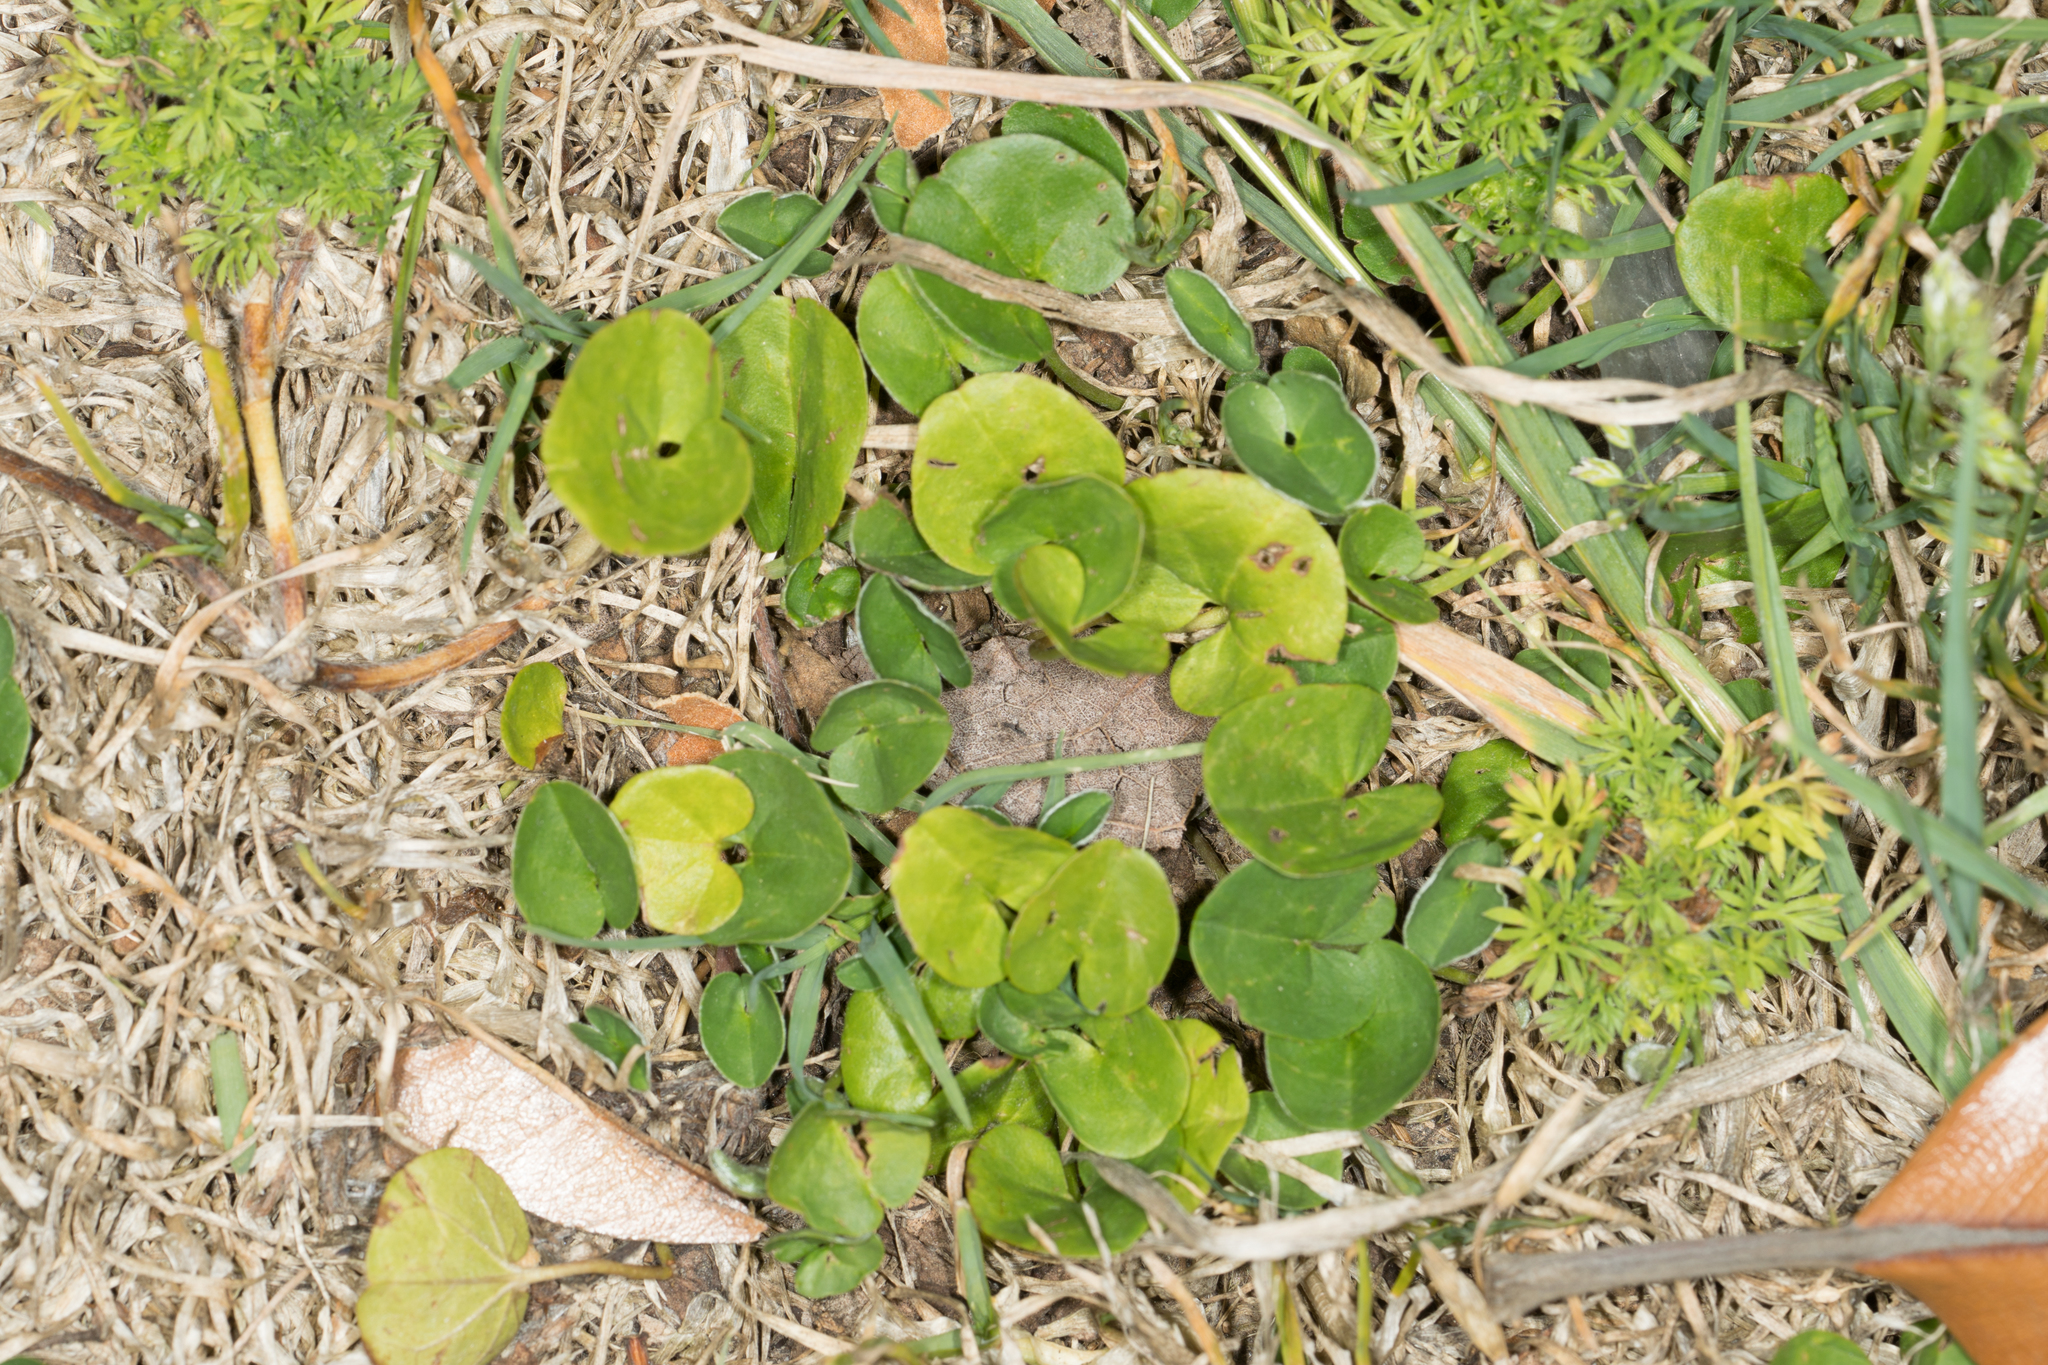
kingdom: Plantae
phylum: Tracheophyta
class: Magnoliopsida
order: Solanales
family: Convolvulaceae
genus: Dichondra
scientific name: Dichondra micrantha
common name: Kidneyweed
